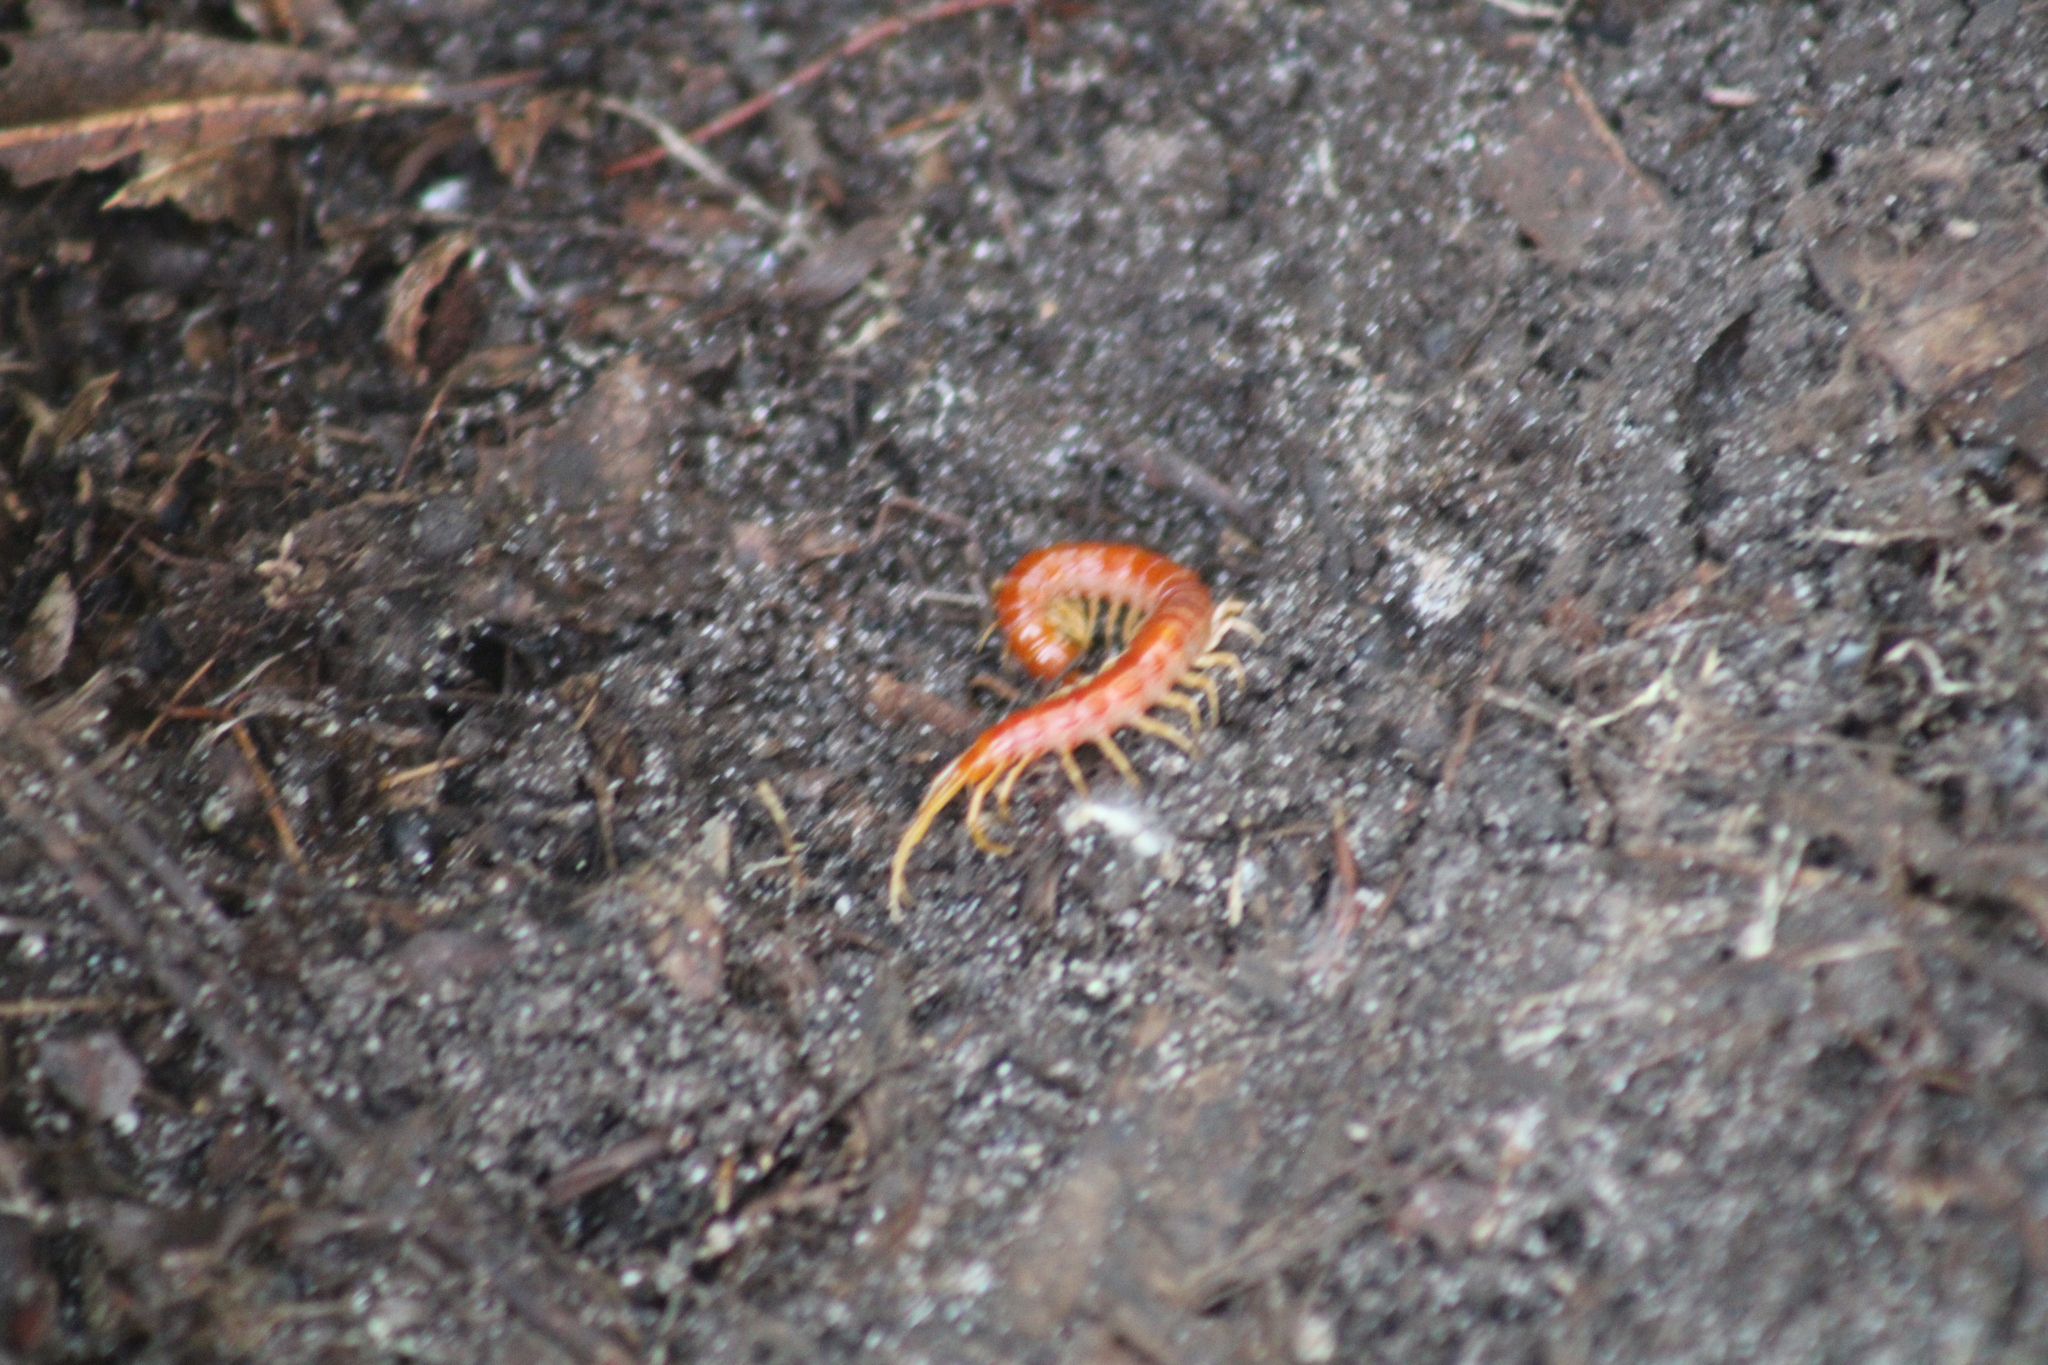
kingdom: Animalia
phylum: Arthropoda
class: Chilopoda
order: Scolopendromorpha
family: Scolopocryptopidae
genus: Scolopocryptops
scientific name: Scolopocryptops sexspinosus
